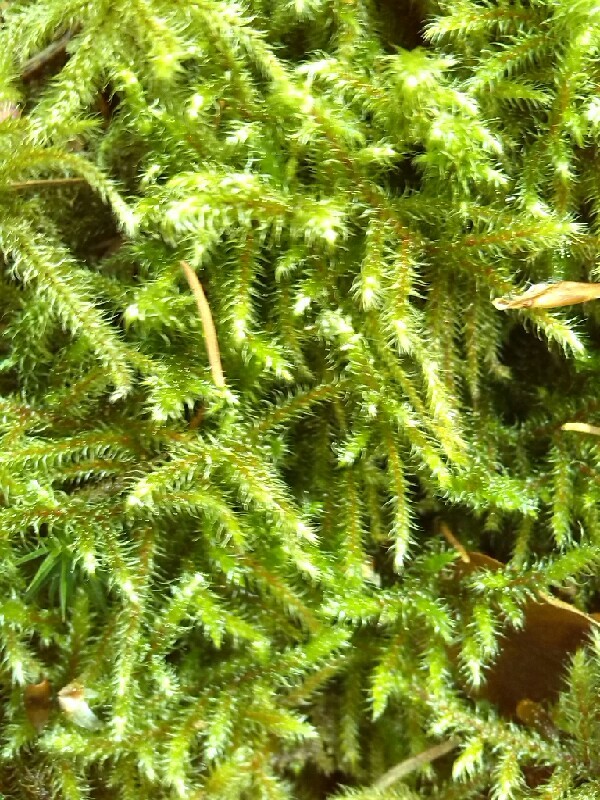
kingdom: Plantae
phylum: Bryophyta
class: Bryopsida
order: Hypnales
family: Hylocomiaceae
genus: Rhytidiadelphus
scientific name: Rhytidiadelphus loreus
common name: Lanky moss
